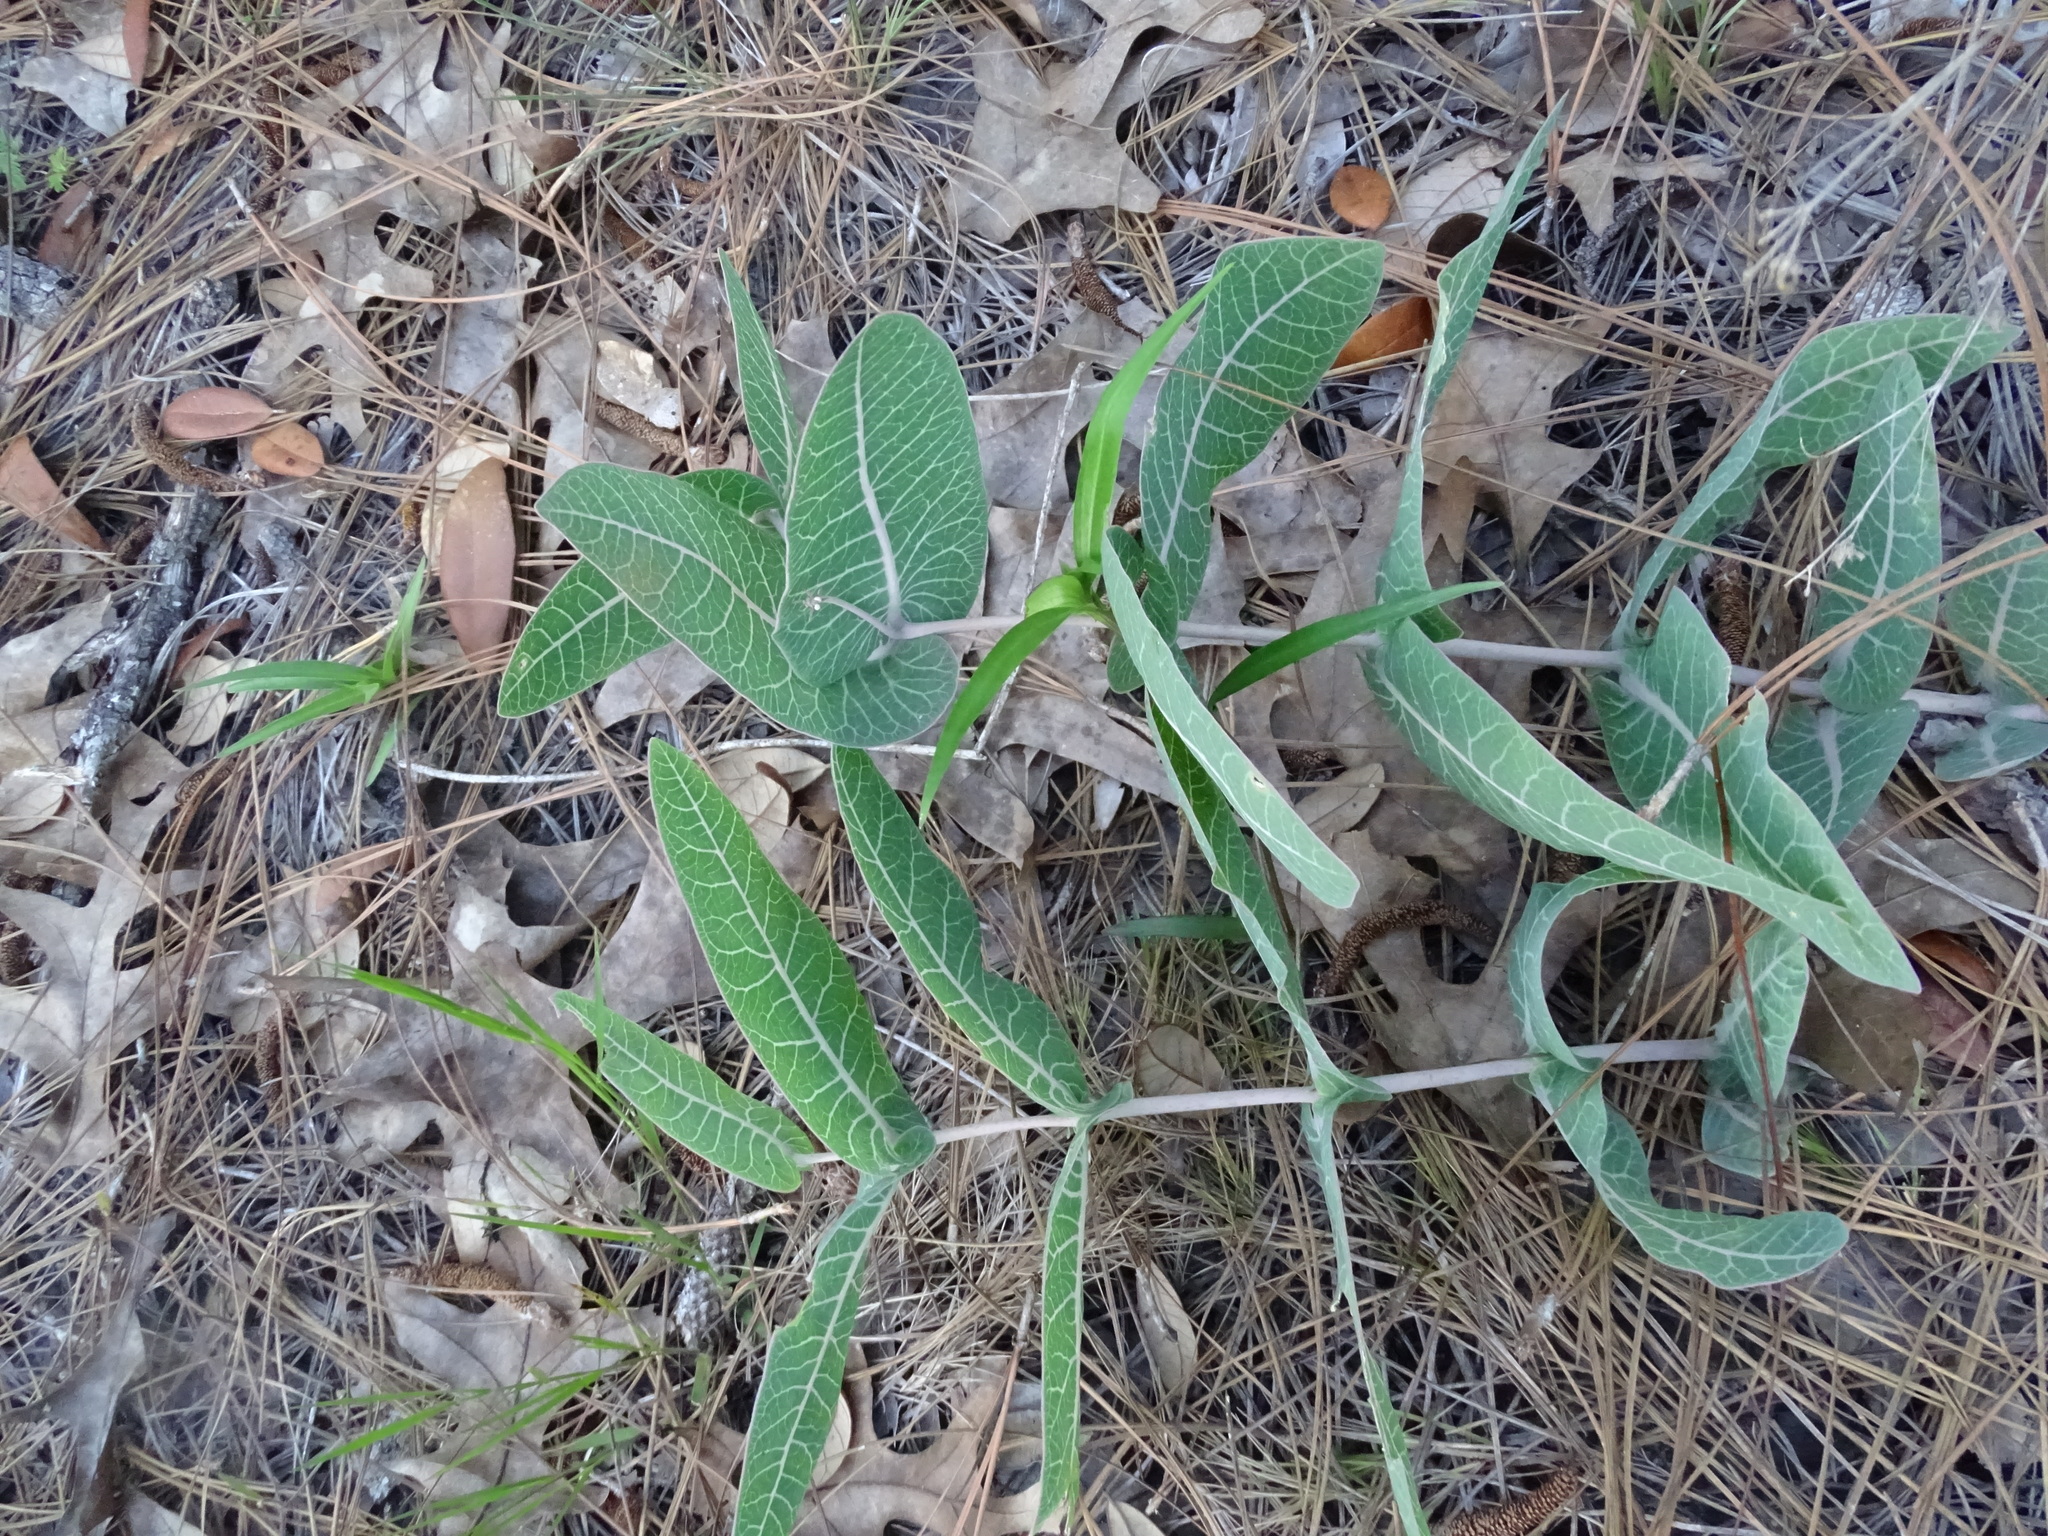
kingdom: Plantae
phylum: Tracheophyta
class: Magnoliopsida
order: Gentianales
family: Apocynaceae
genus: Asclepias
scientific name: Asclepias humistrata
